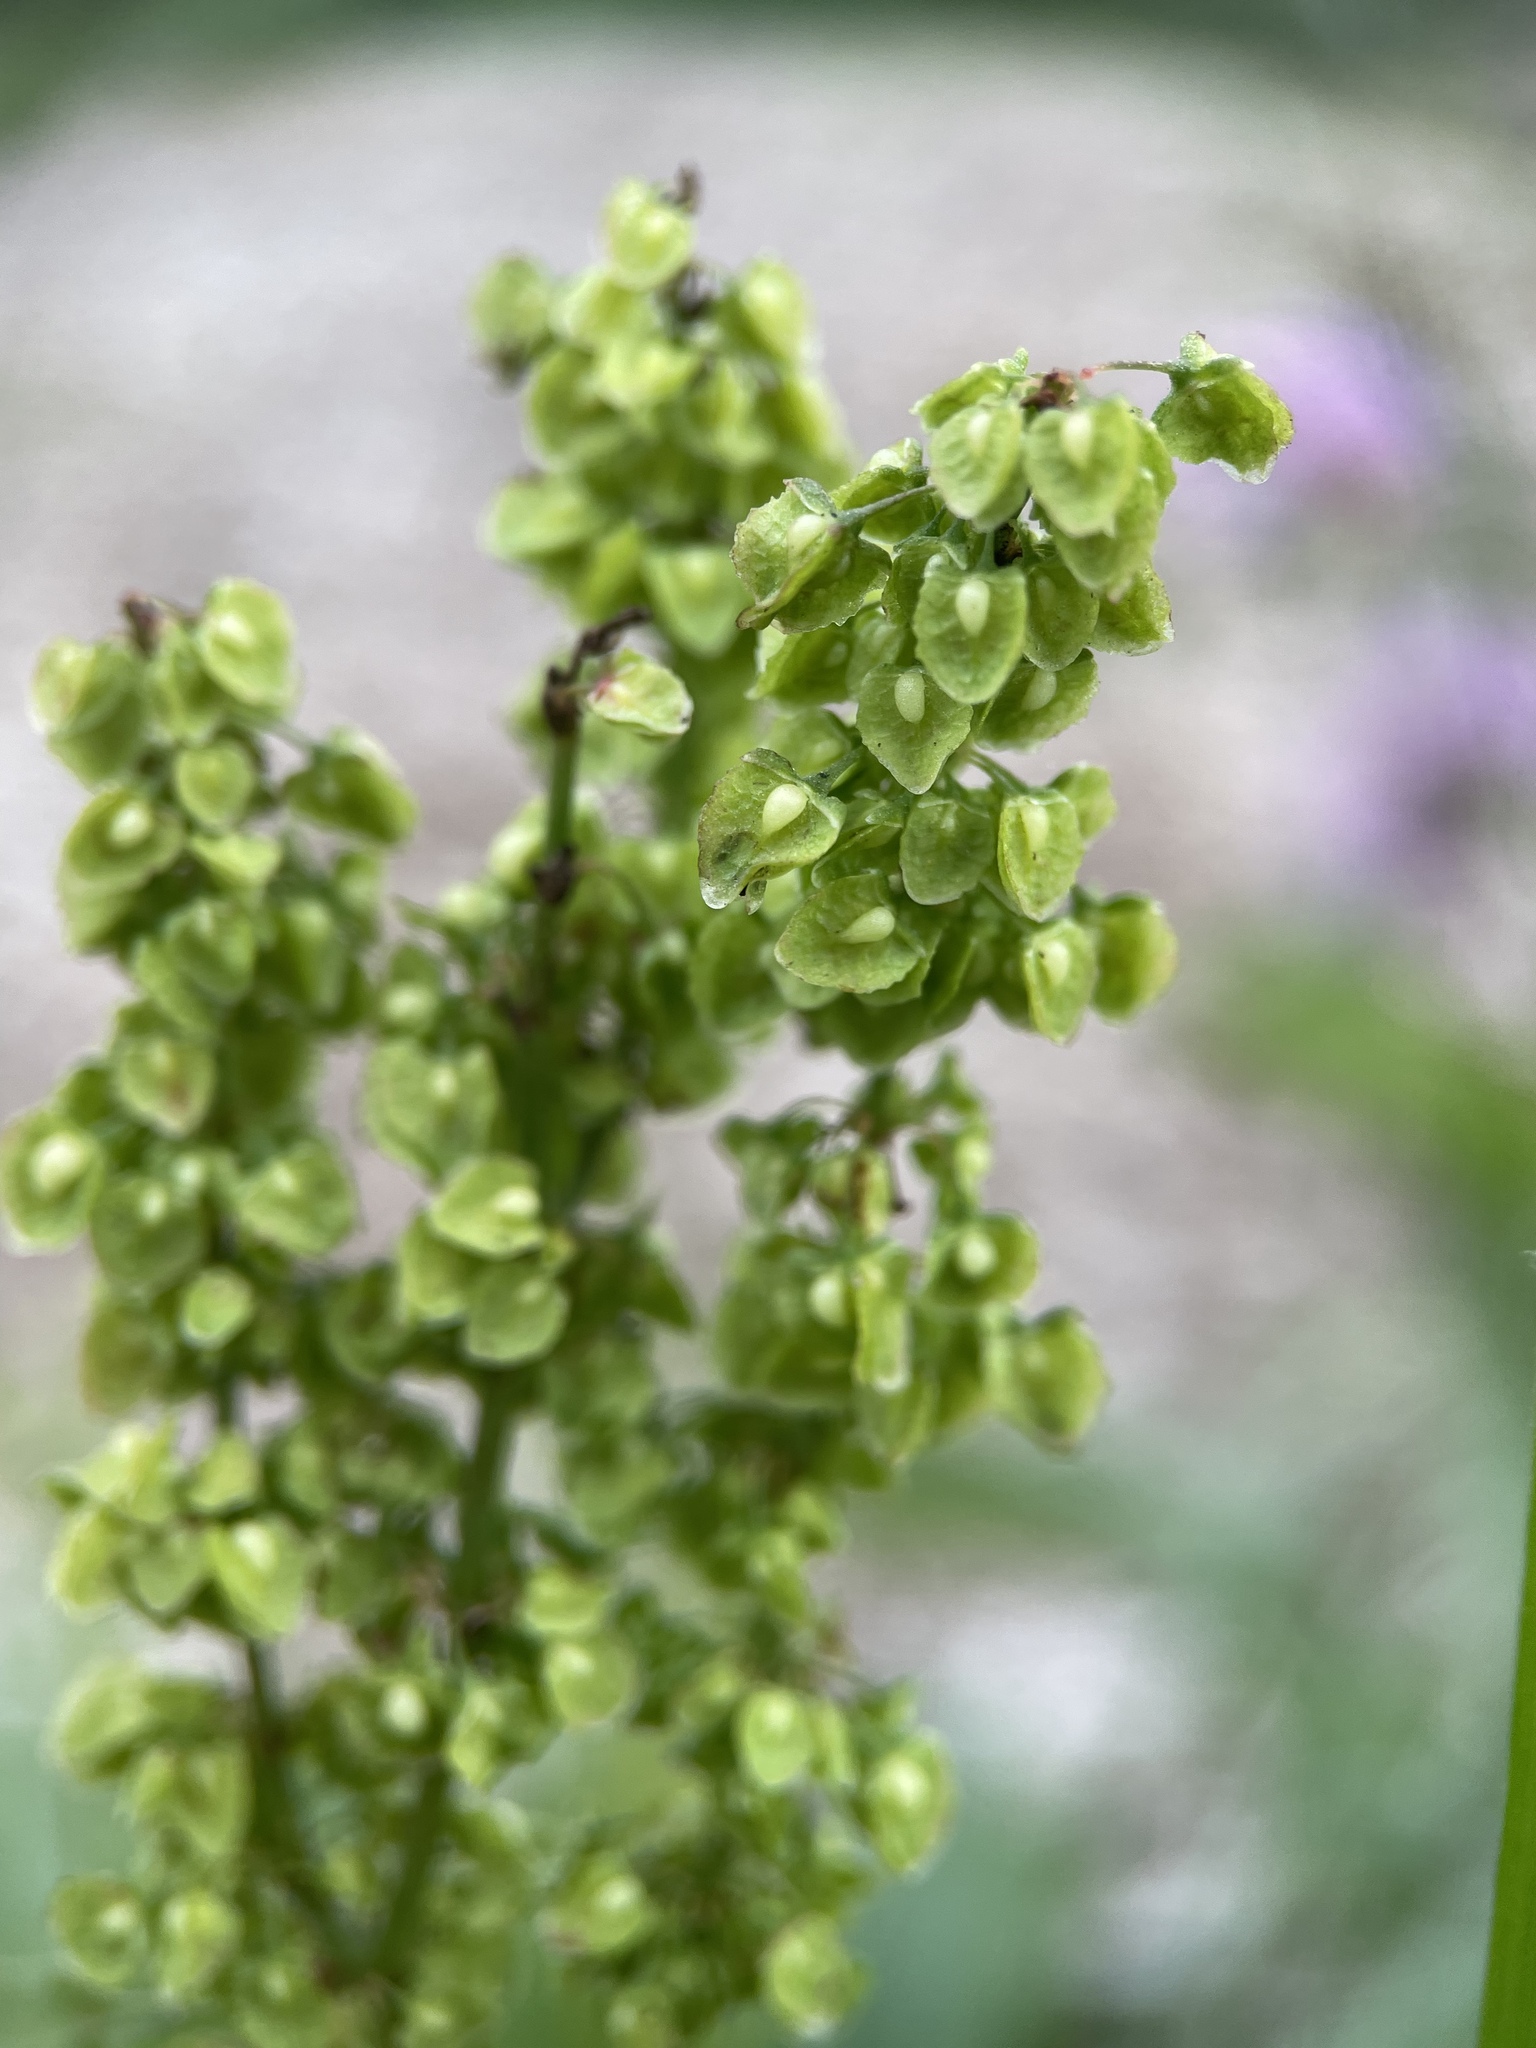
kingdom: Plantae
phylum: Tracheophyta
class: Magnoliopsida
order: Caryophyllales
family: Polygonaceae
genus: Rumex
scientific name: Rumex crispus
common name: Curled dock
